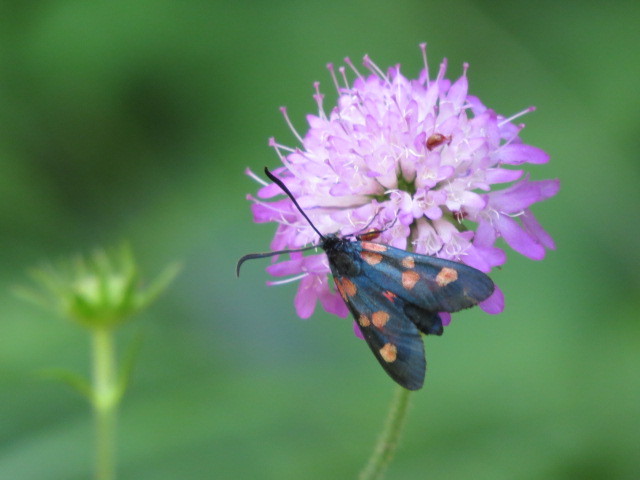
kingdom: Animalia
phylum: Arthropoda
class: Insecta
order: Lepidoptera
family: Zygaenidae
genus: Zygaena
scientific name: Zygaena lonicerae
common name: Narrow-bordered five-spot burnet
